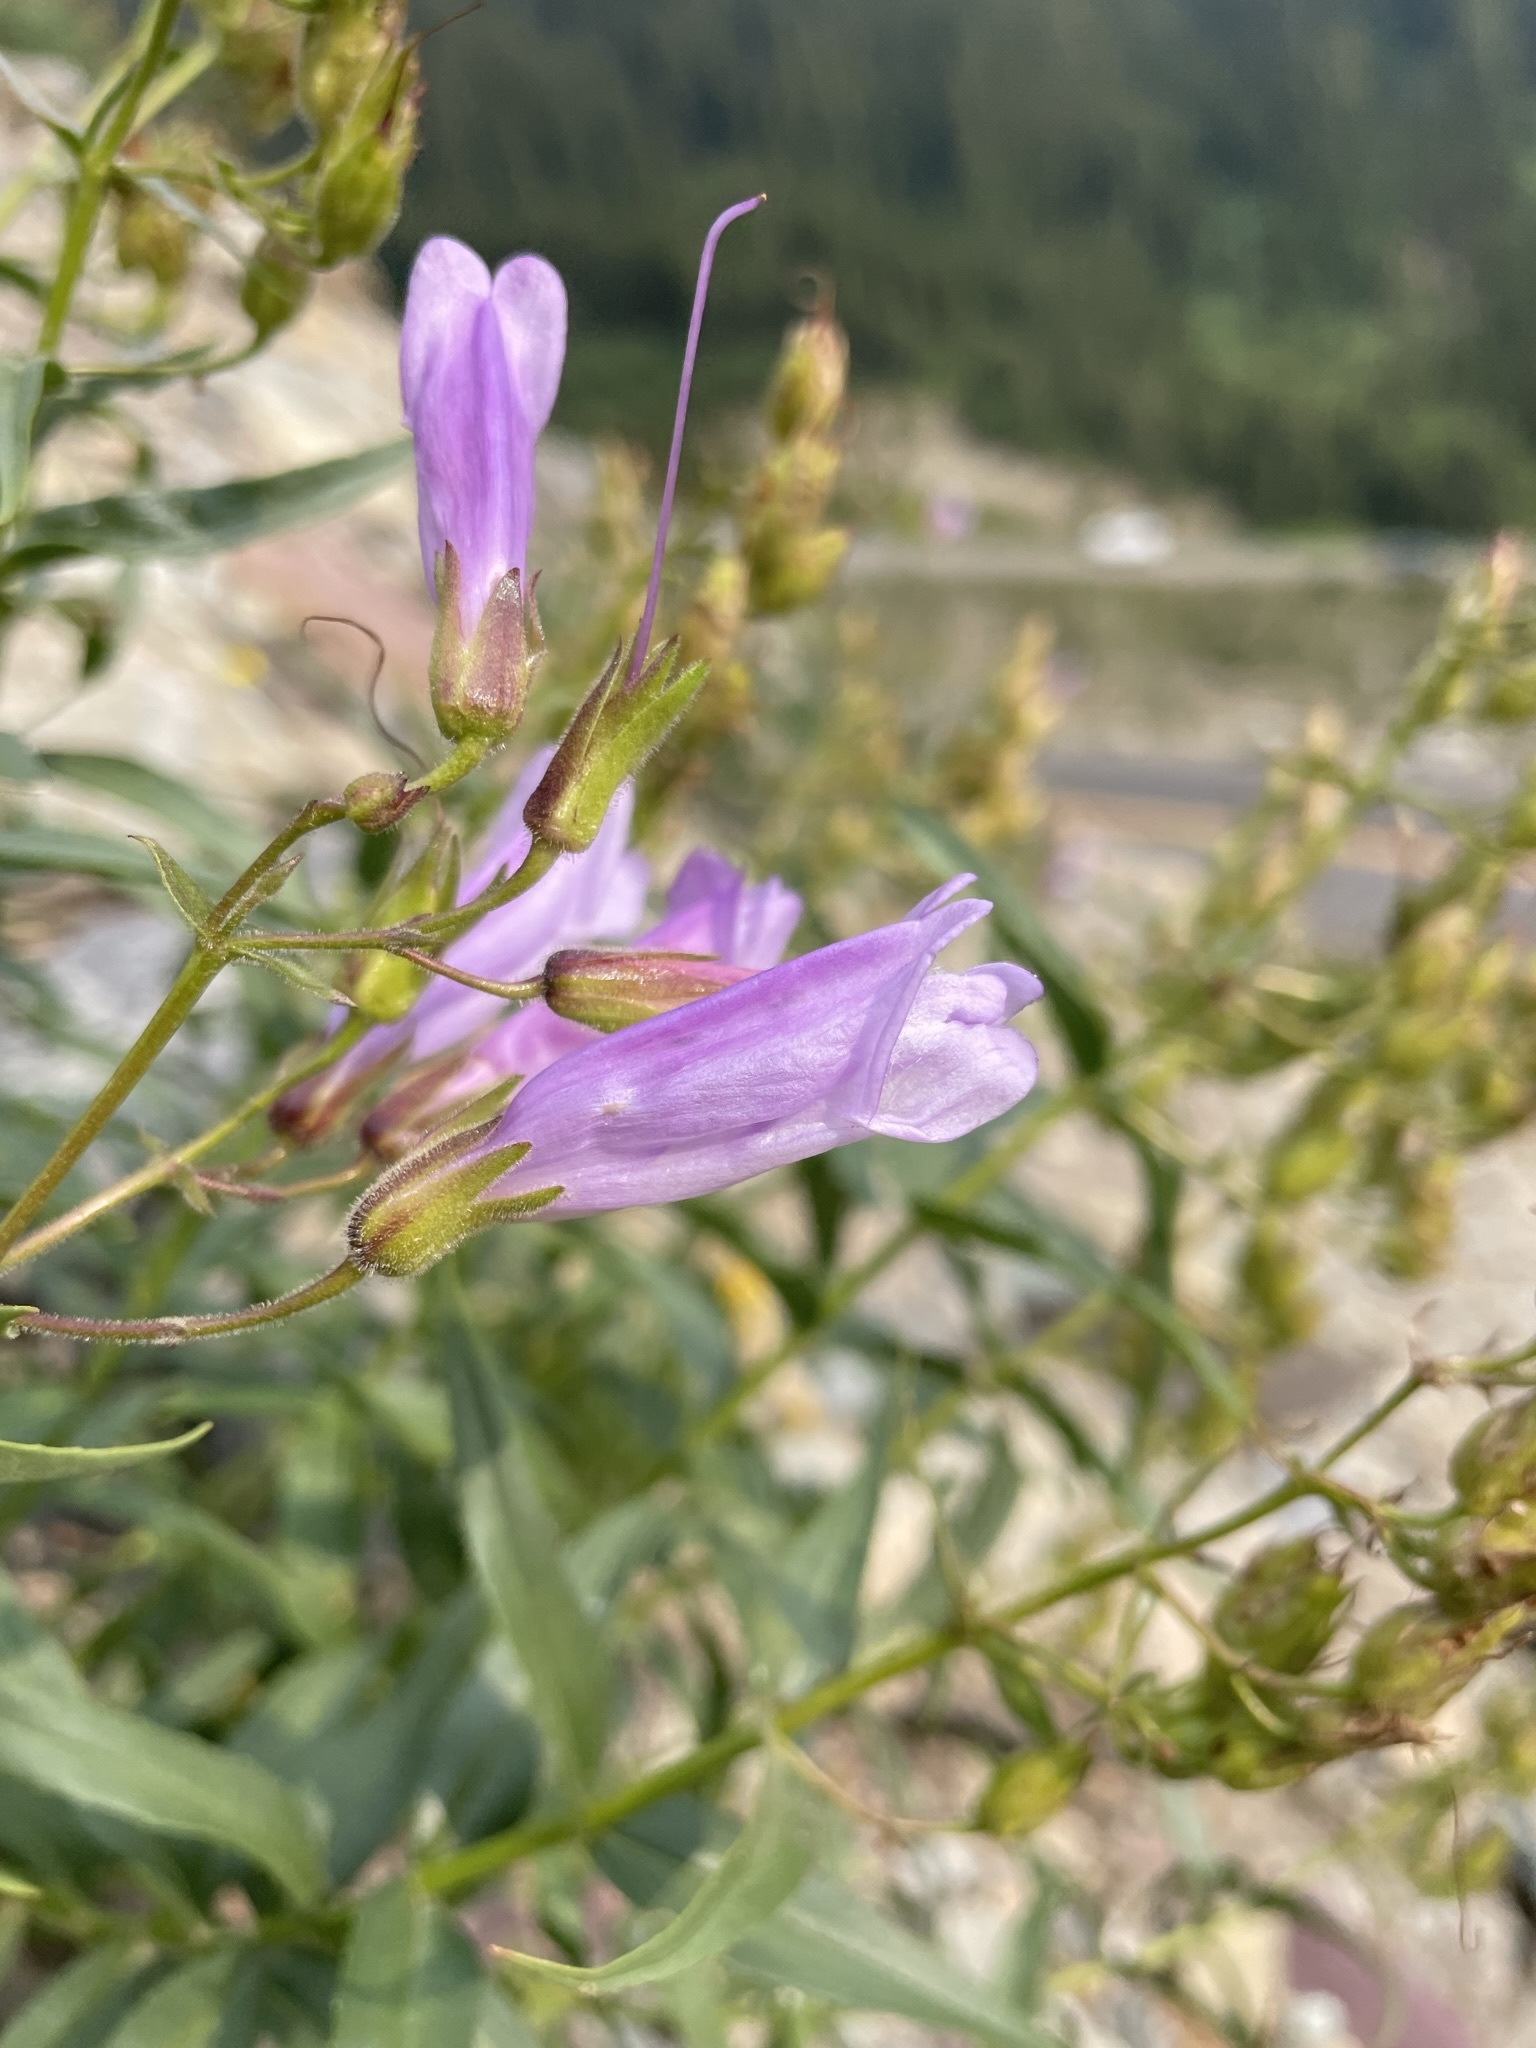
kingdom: Plantae
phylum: Tracheophyta
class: Magnoliopsida
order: Lamiales
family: Plantaginaceae
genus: Penstemon
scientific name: Penstemon lyalli
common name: Lyall's beardtongue
